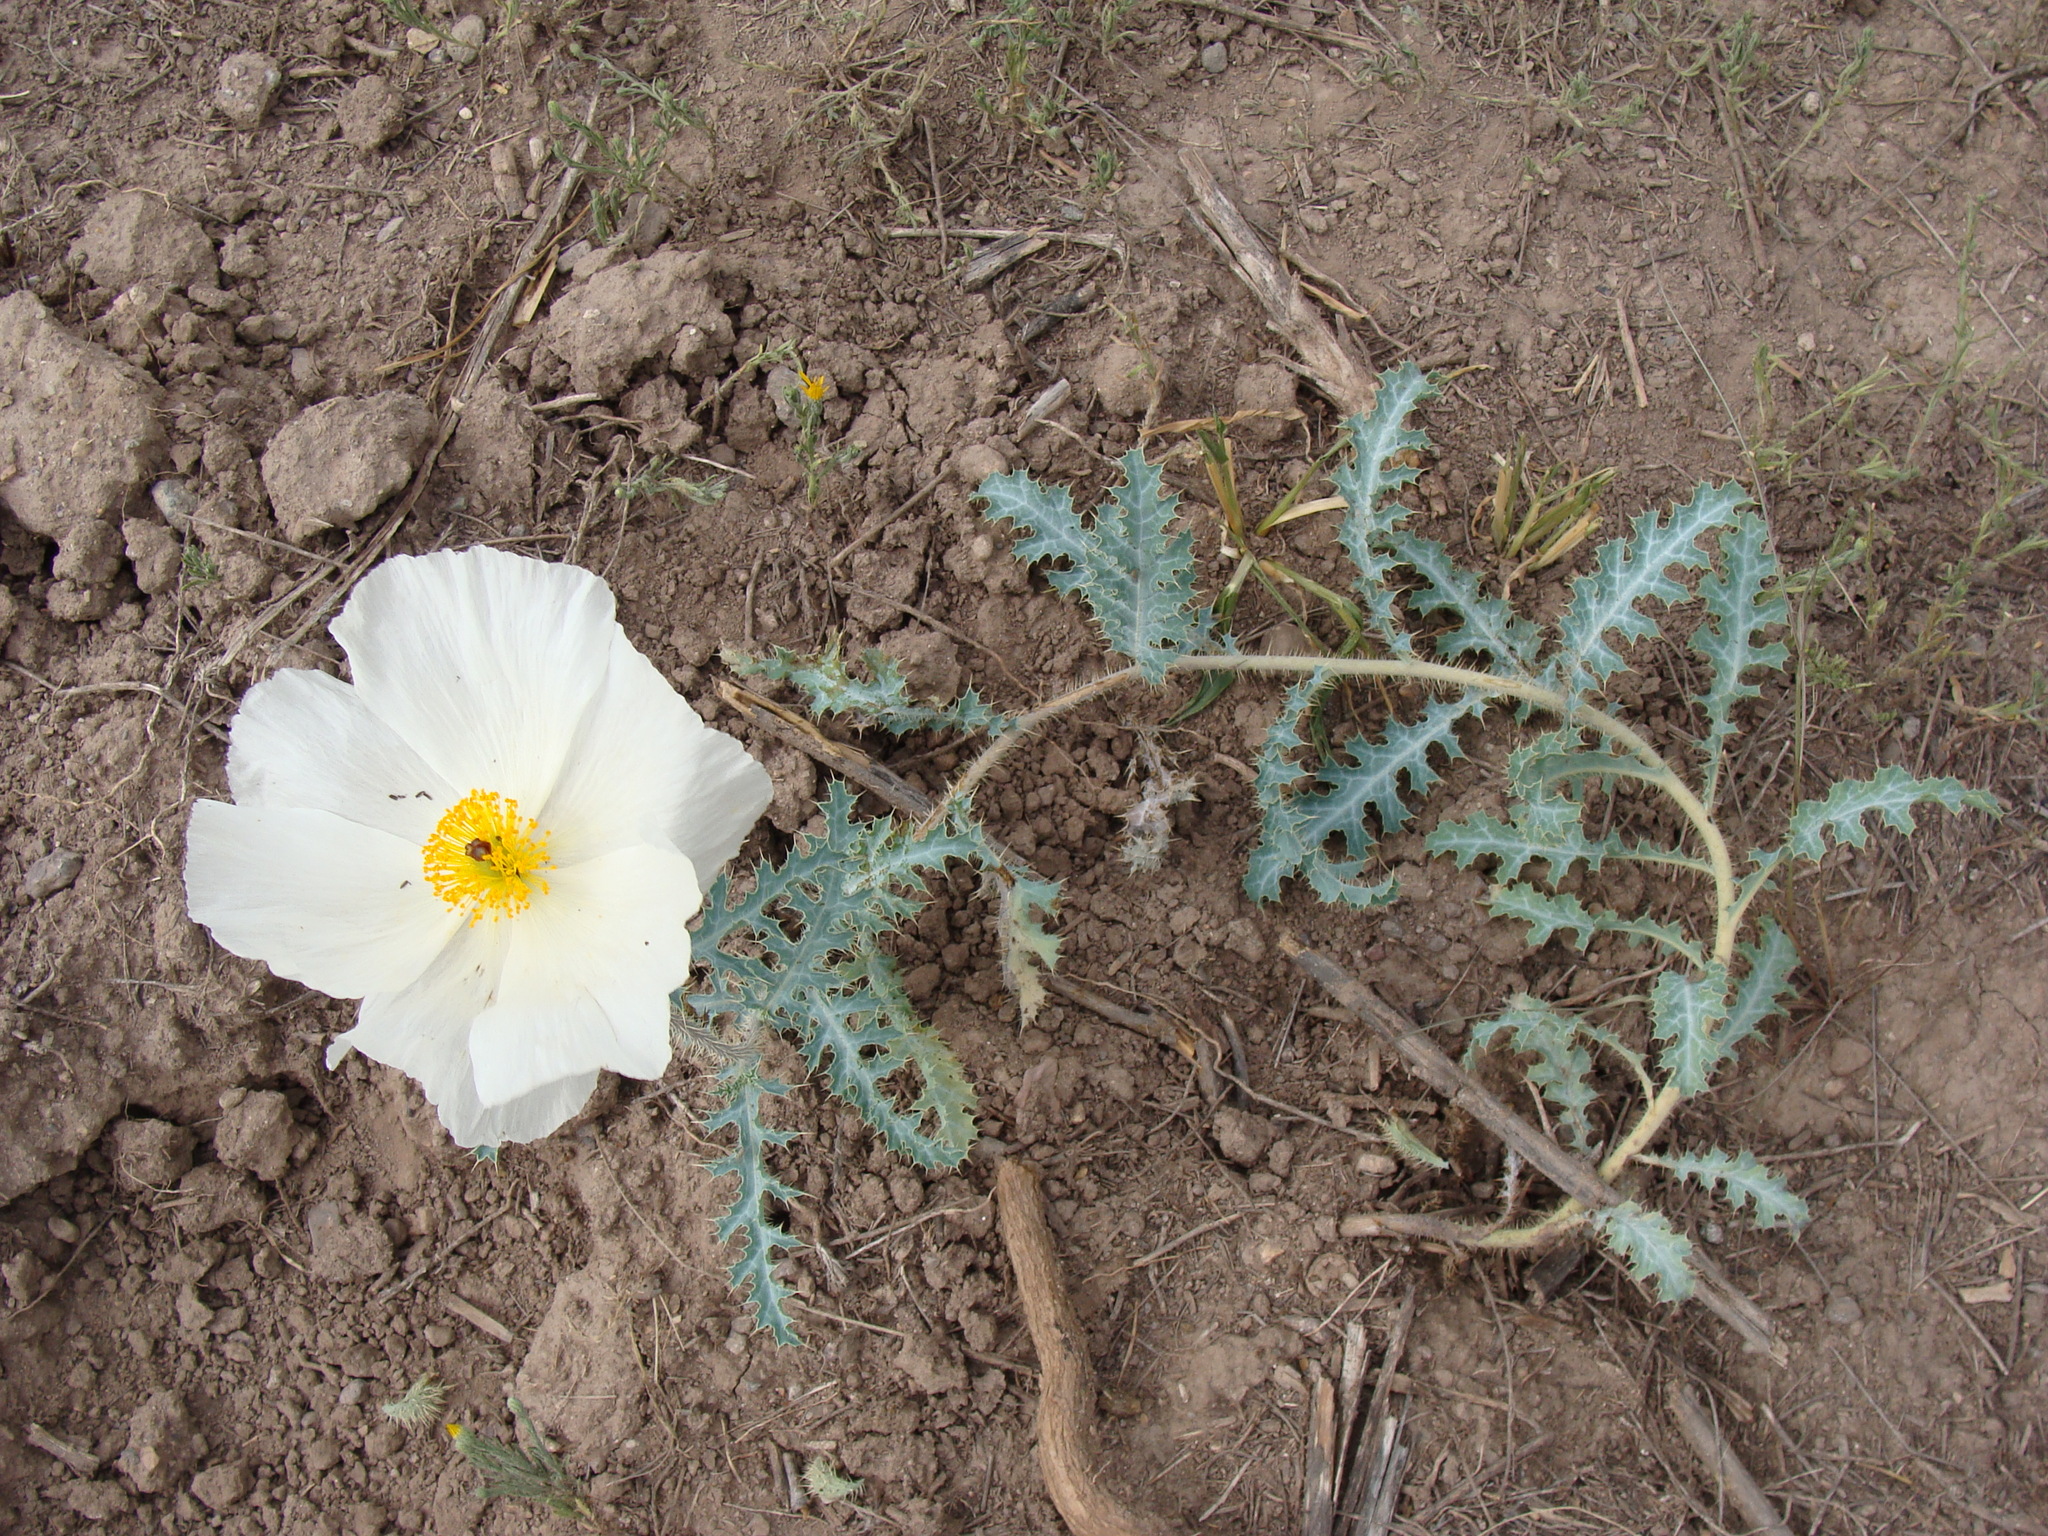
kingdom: Plantae
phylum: Tracheophyta
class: Magnoliopsida
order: Ranunculales
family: Papaveraceae
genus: Argemone
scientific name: Argemone pleiacantha
